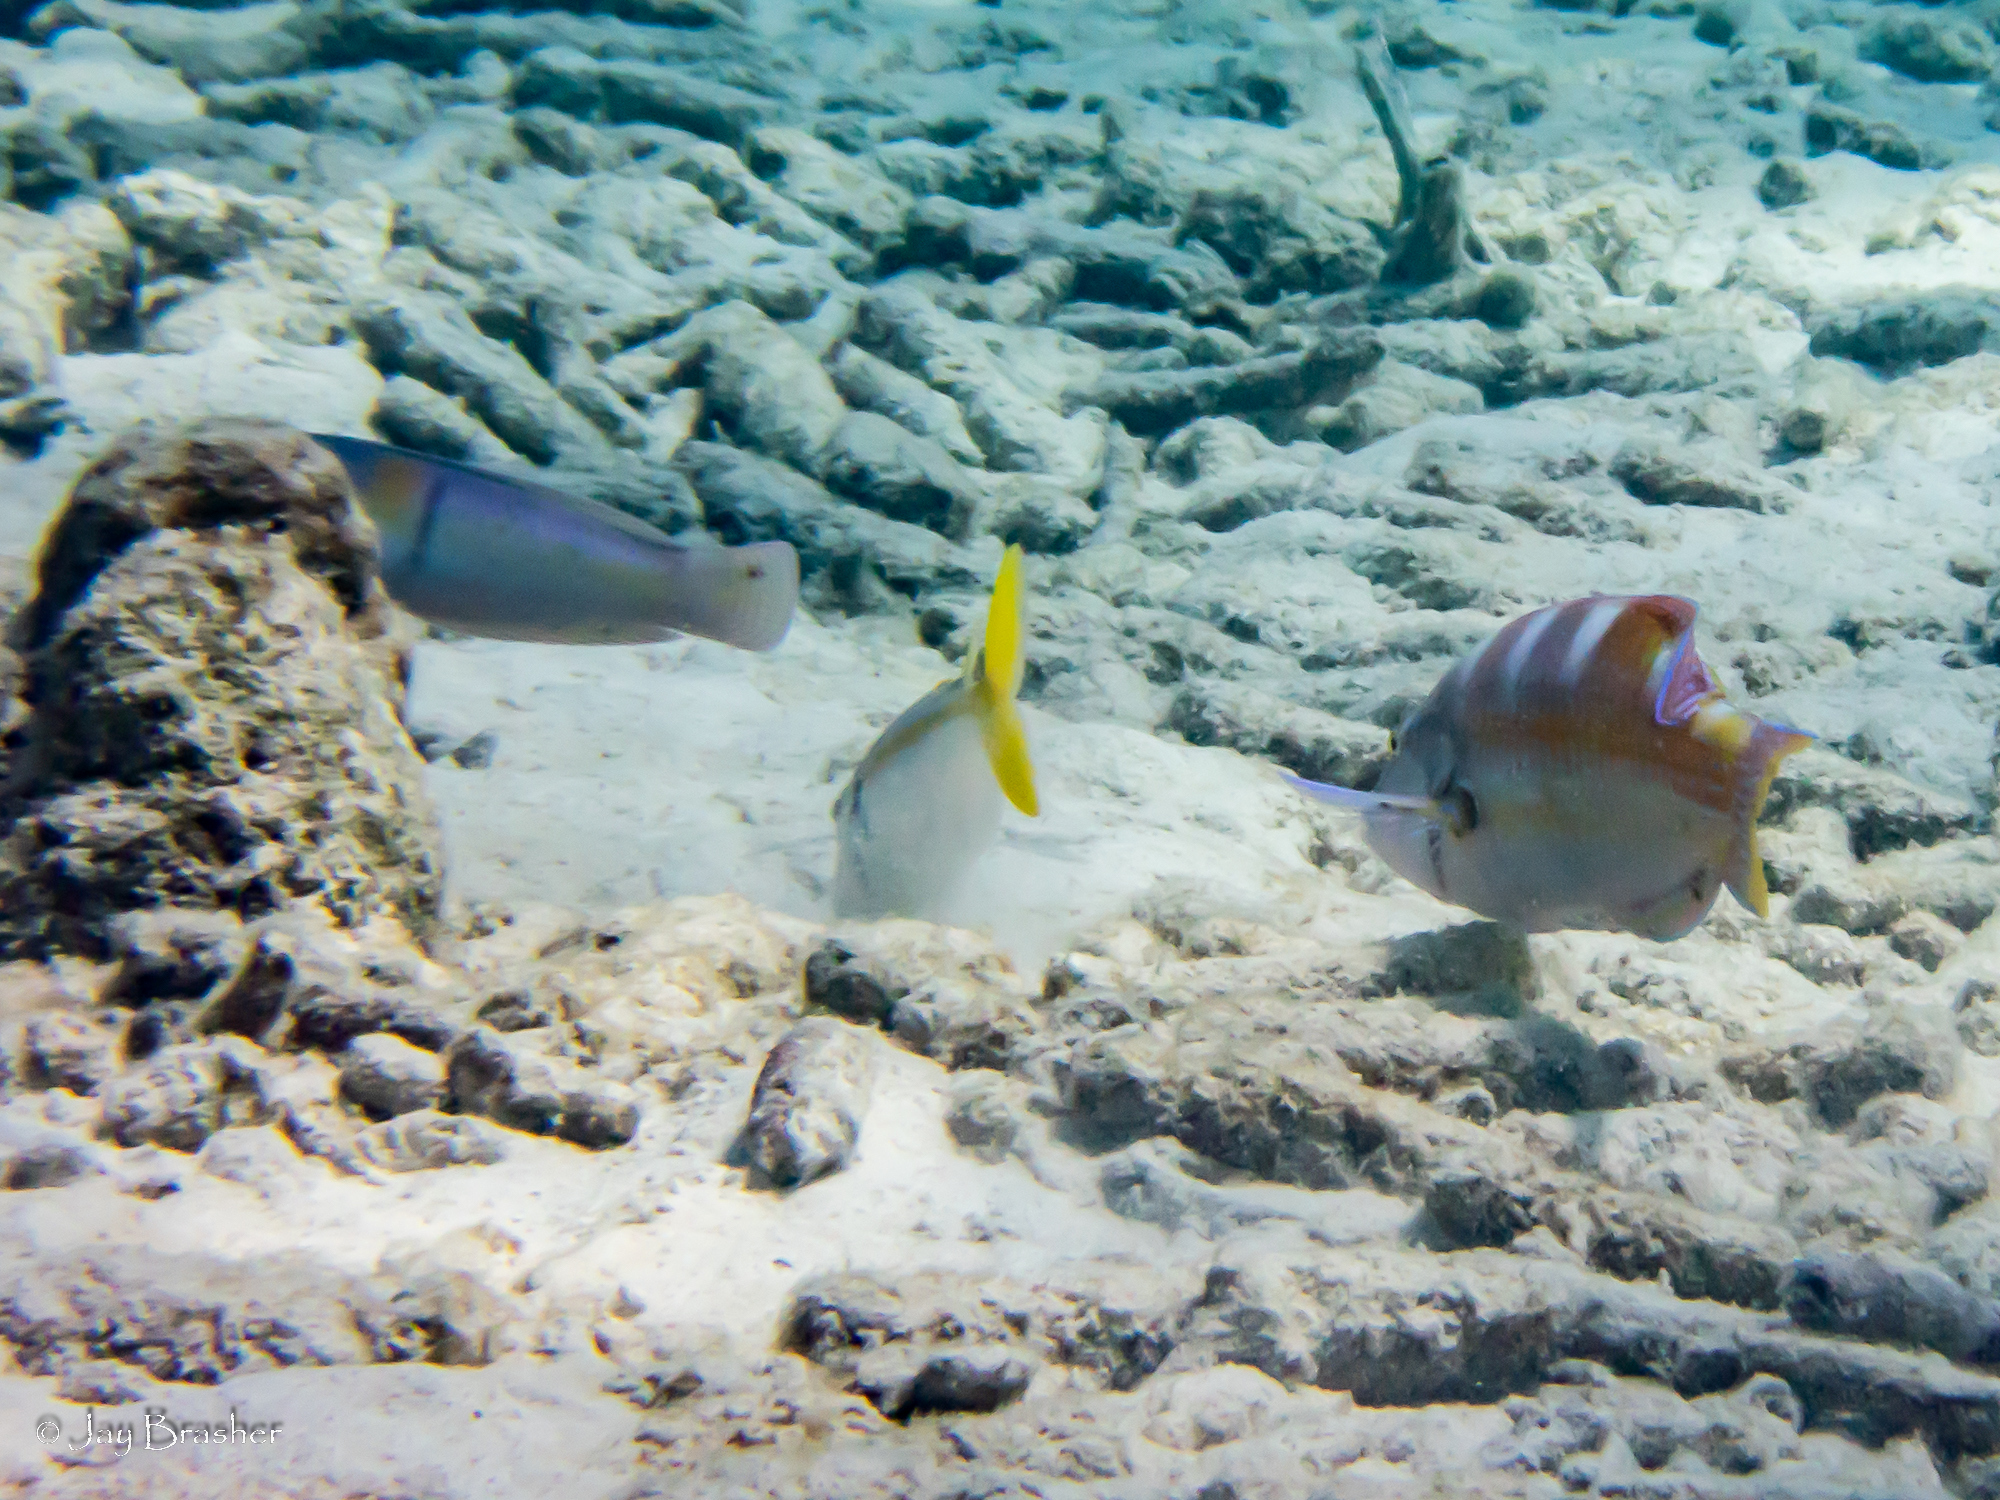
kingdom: Animalia
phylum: Chordata
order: Perciformes
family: Mullidae
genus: Mulloidichthys
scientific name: Mulloidichthys martinicus
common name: Yellow goatfish
